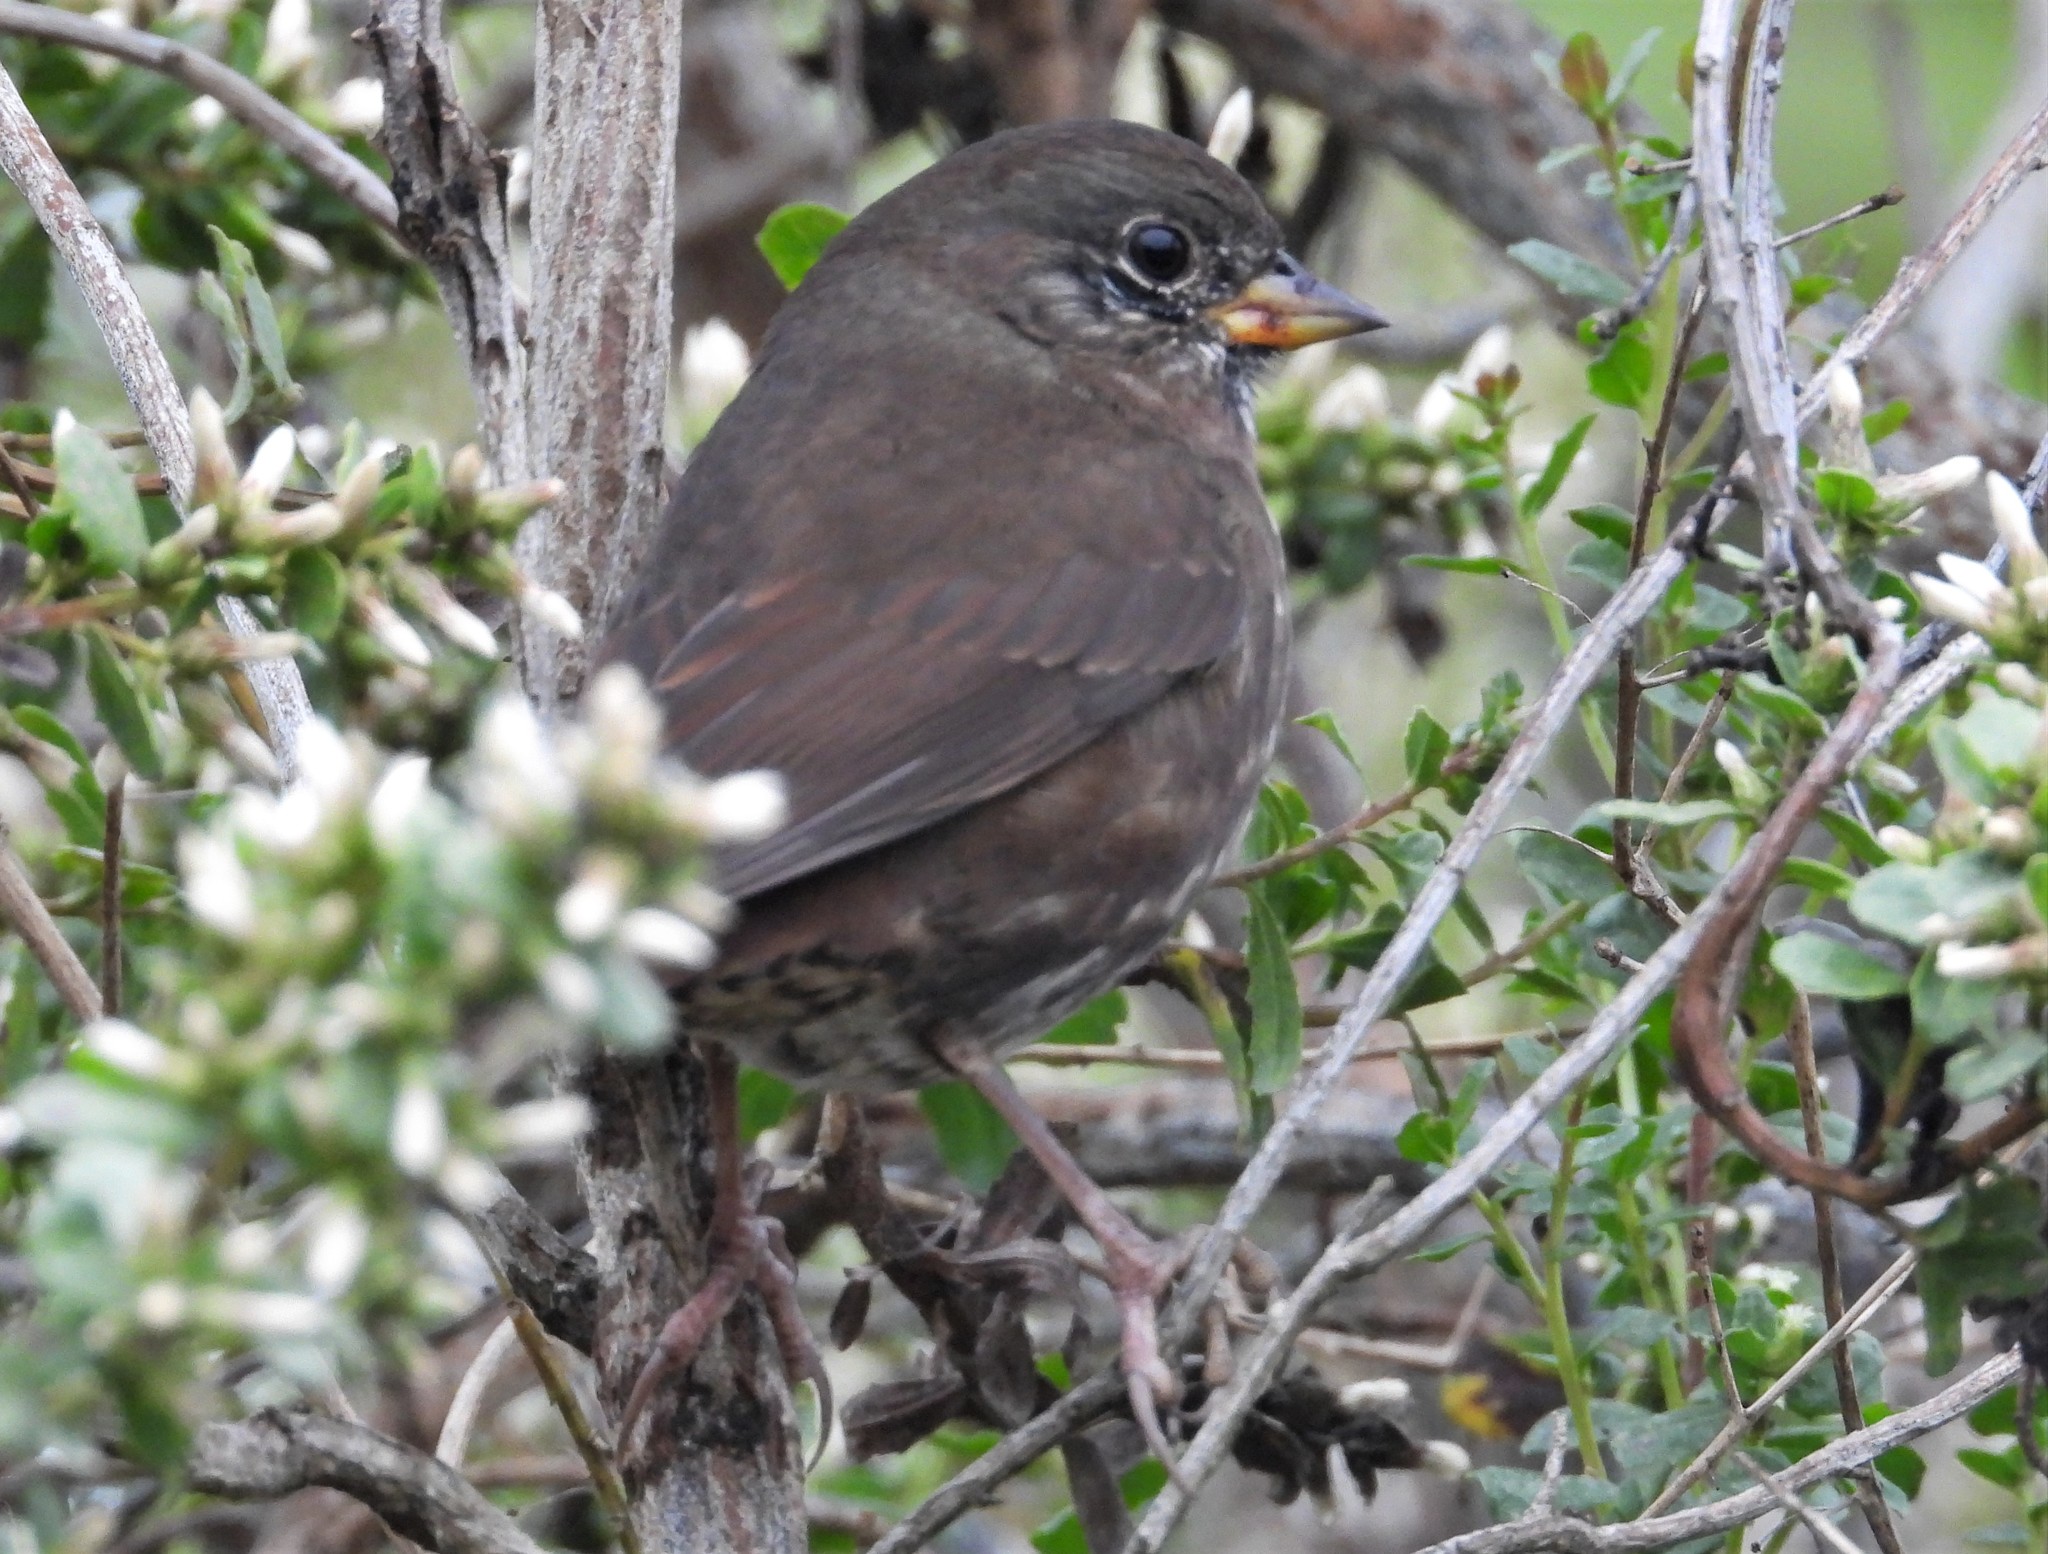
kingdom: Animalia
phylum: Chordata
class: Aves
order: Passeriformes
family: Passerellidae
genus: Passerella
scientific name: Passerella iliaca
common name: Fox sparrow
